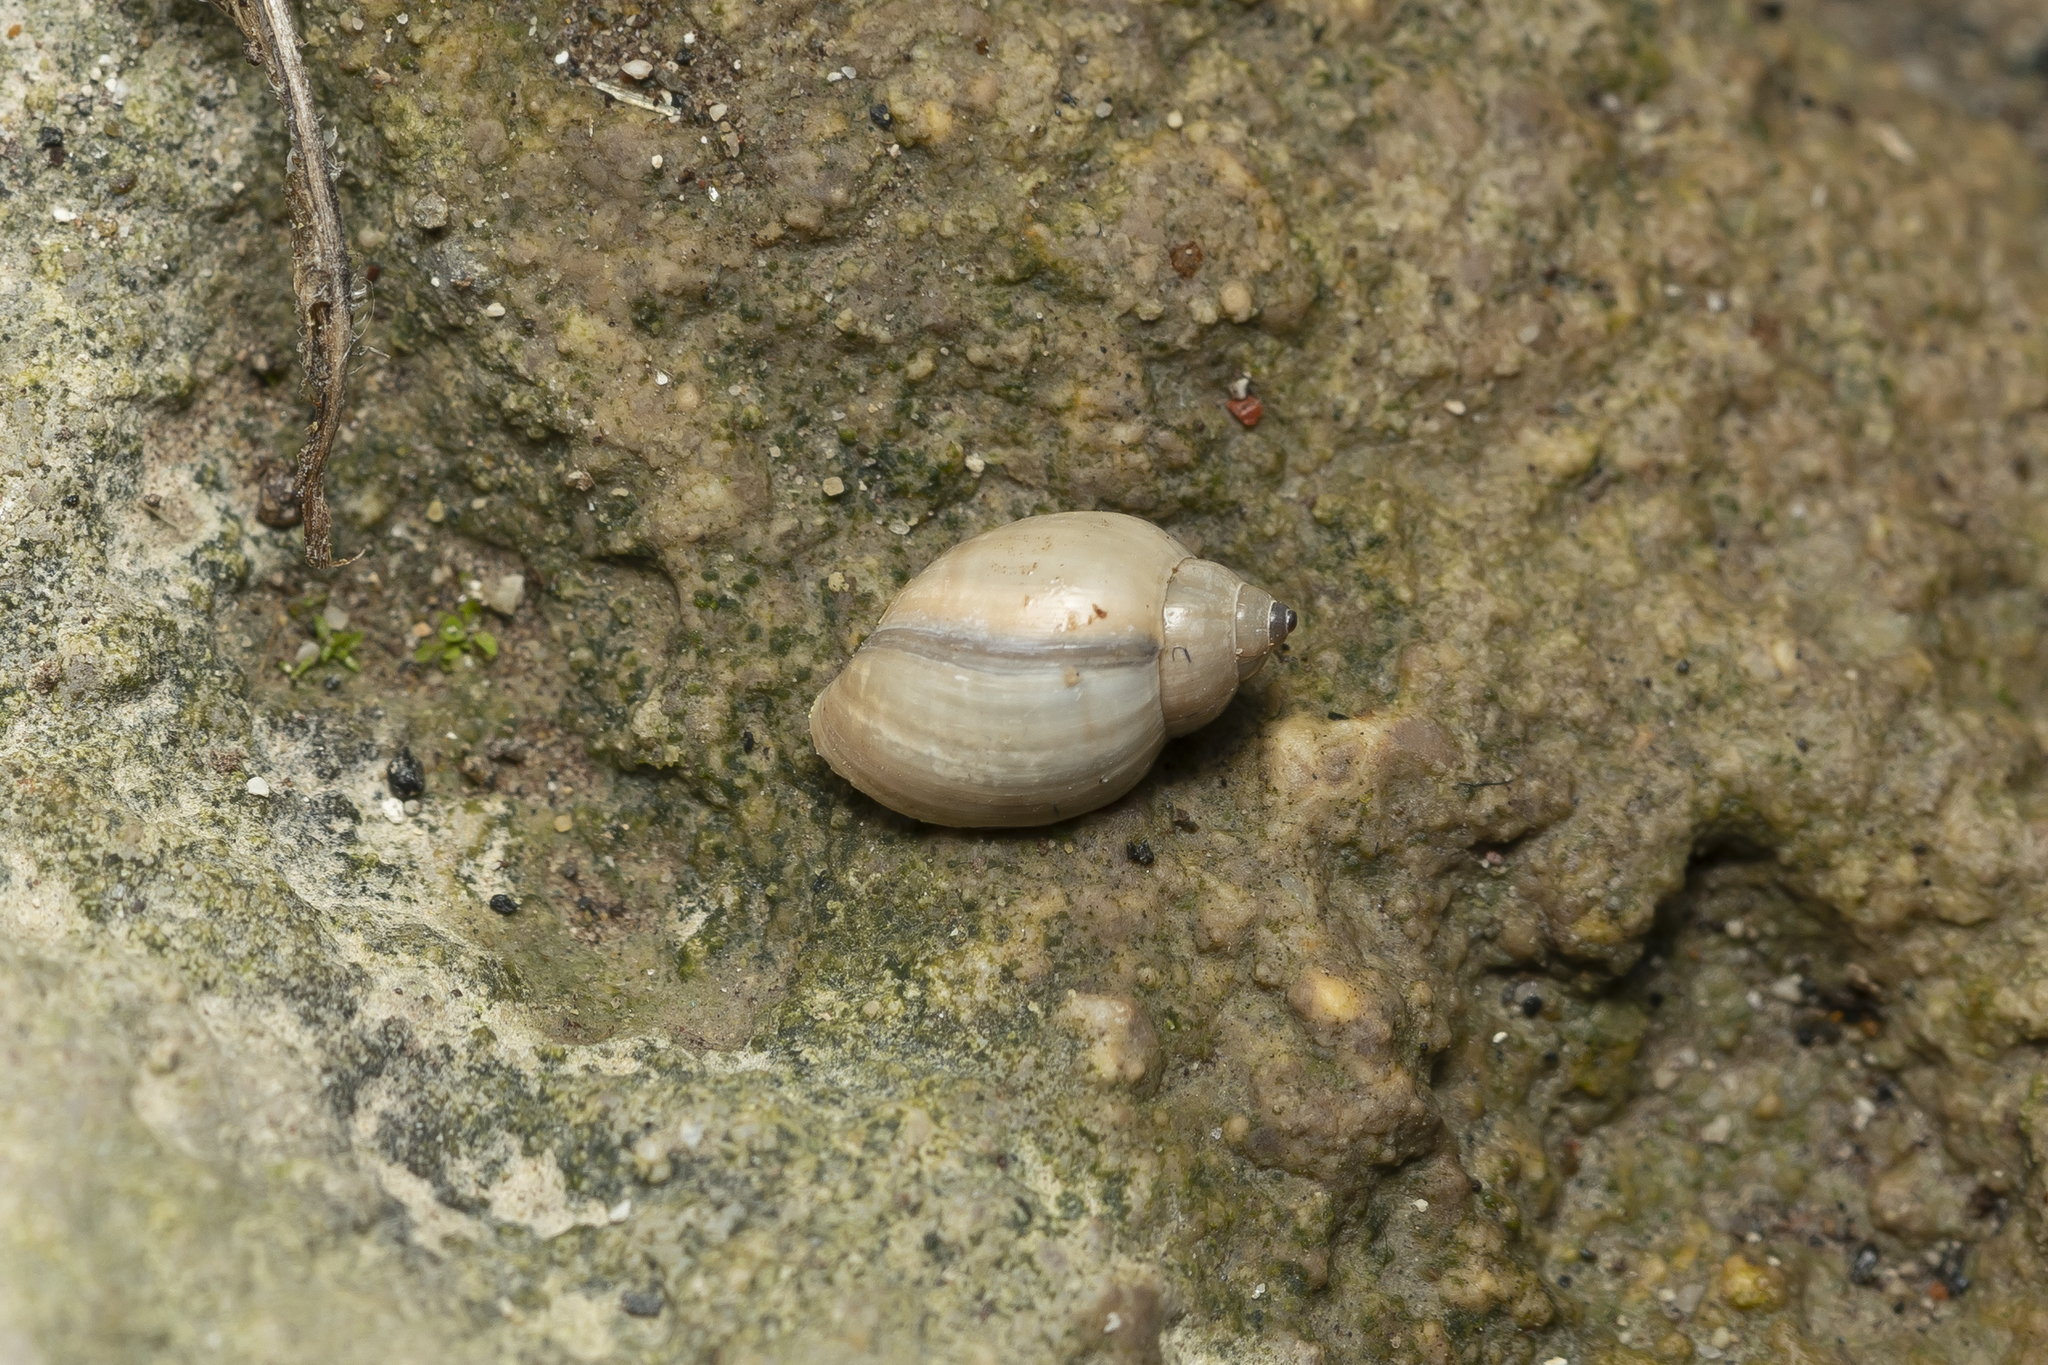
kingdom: Animalia
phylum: Mollusca
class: Gastropoda
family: Physidae
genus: Physella
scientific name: Physella acuta
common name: European physa
